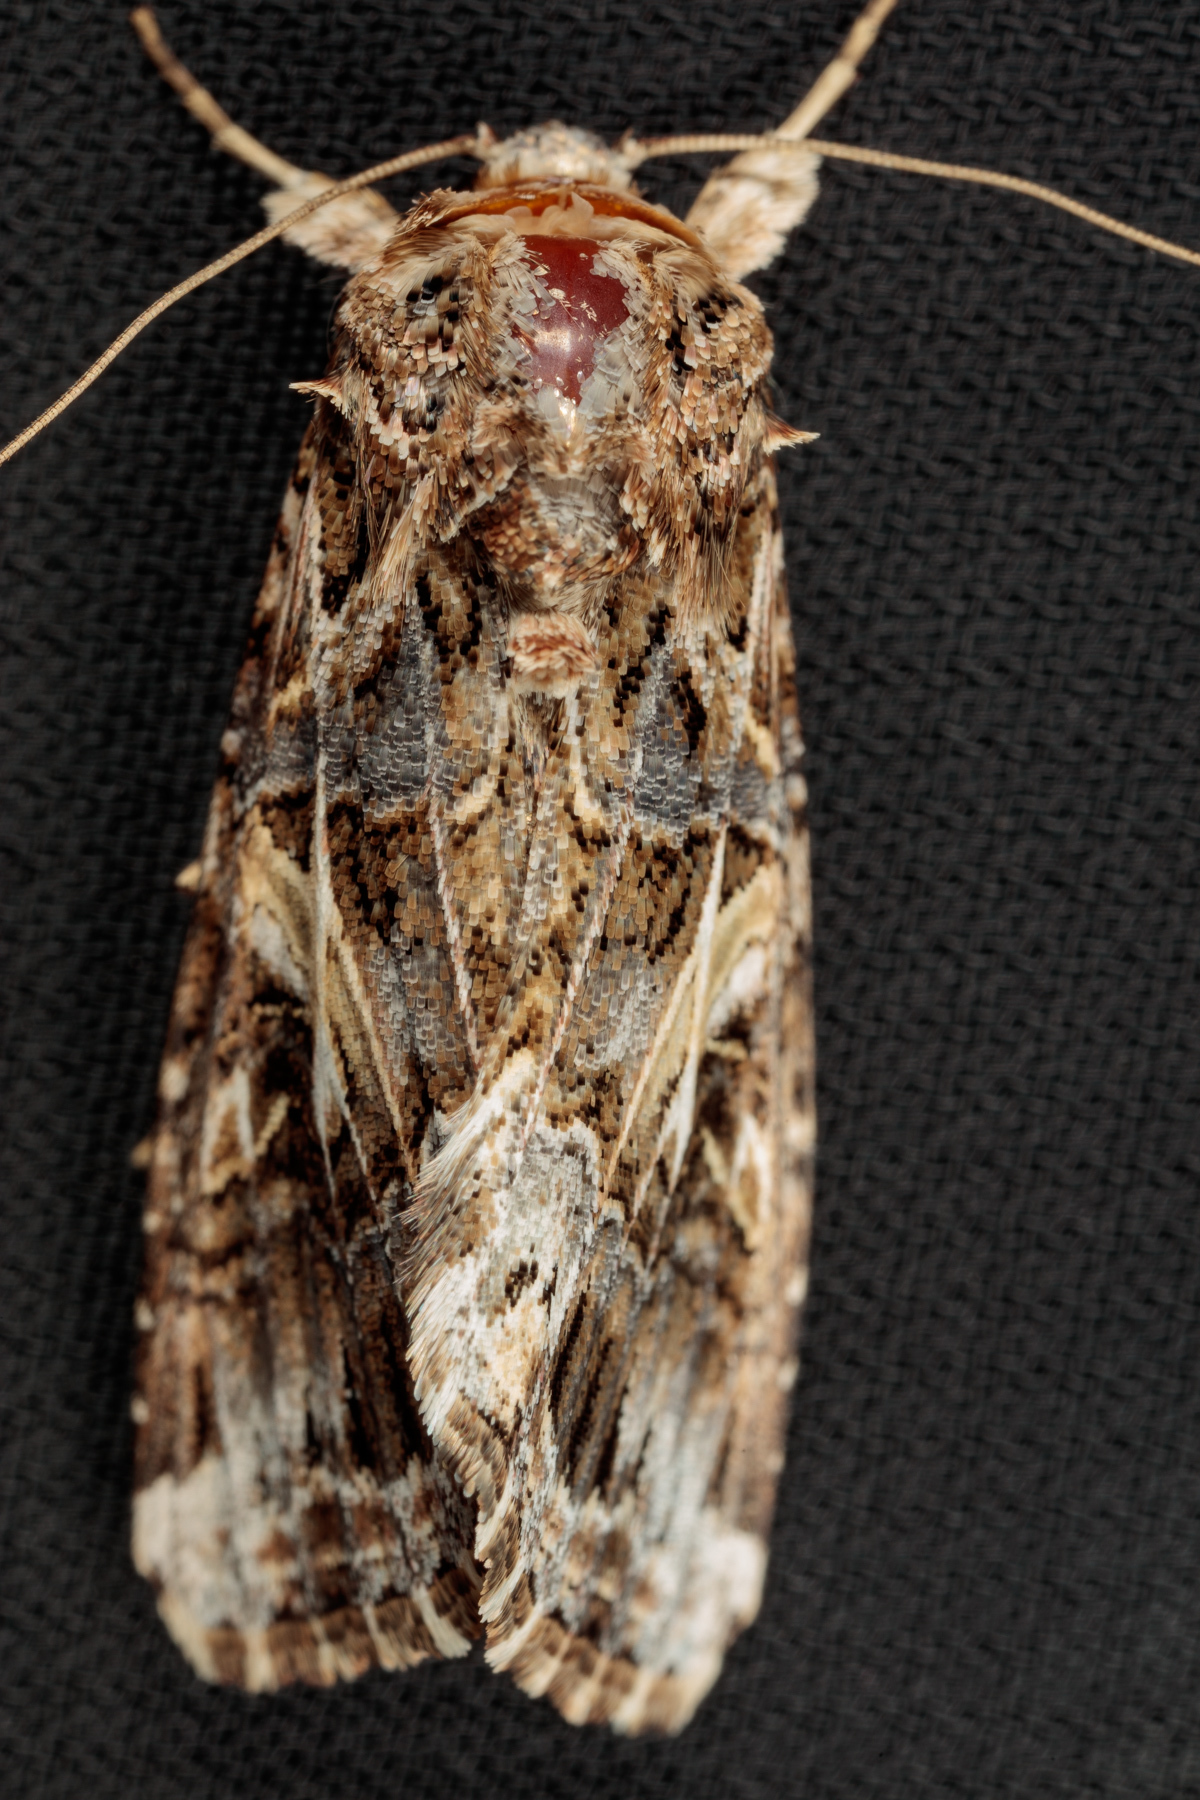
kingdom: Animalia
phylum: Arthropoda
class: Insecta
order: Lepidoptera
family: Noctuidae
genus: Spodoptera
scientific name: Spodoptera ornithogalli
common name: Yellow-striped armyworm
